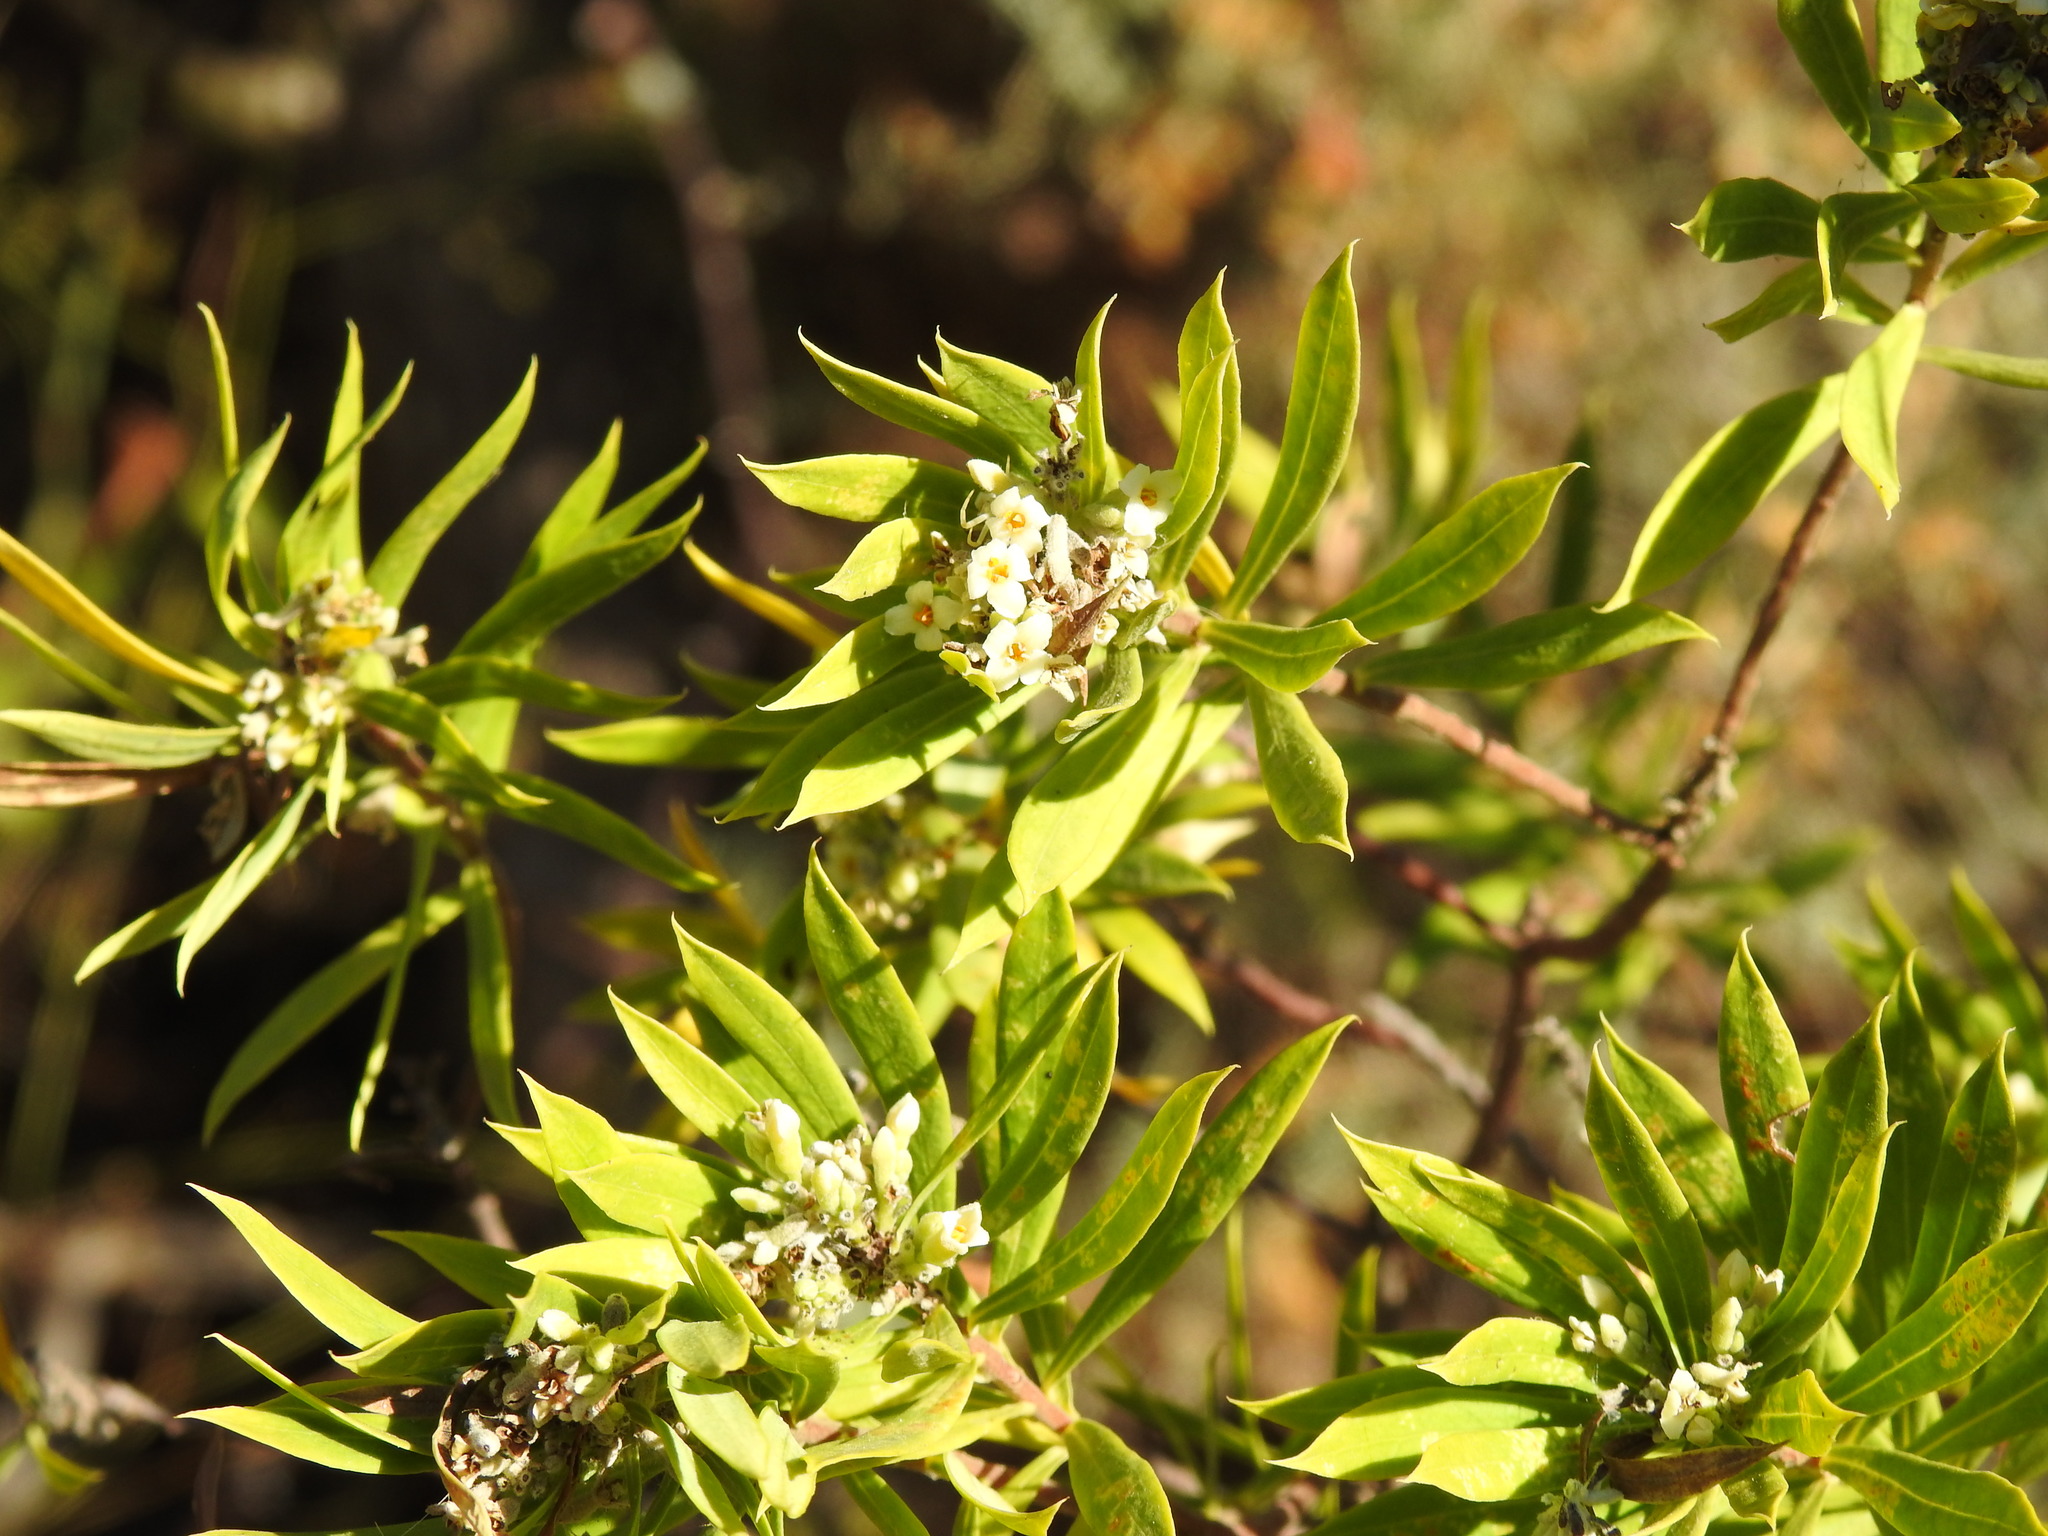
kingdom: Plantae
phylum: Tracheophyta
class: Magnoliopsida
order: Malvales
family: Thymelaeaceae
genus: Daphne
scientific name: Daphne gnidium
